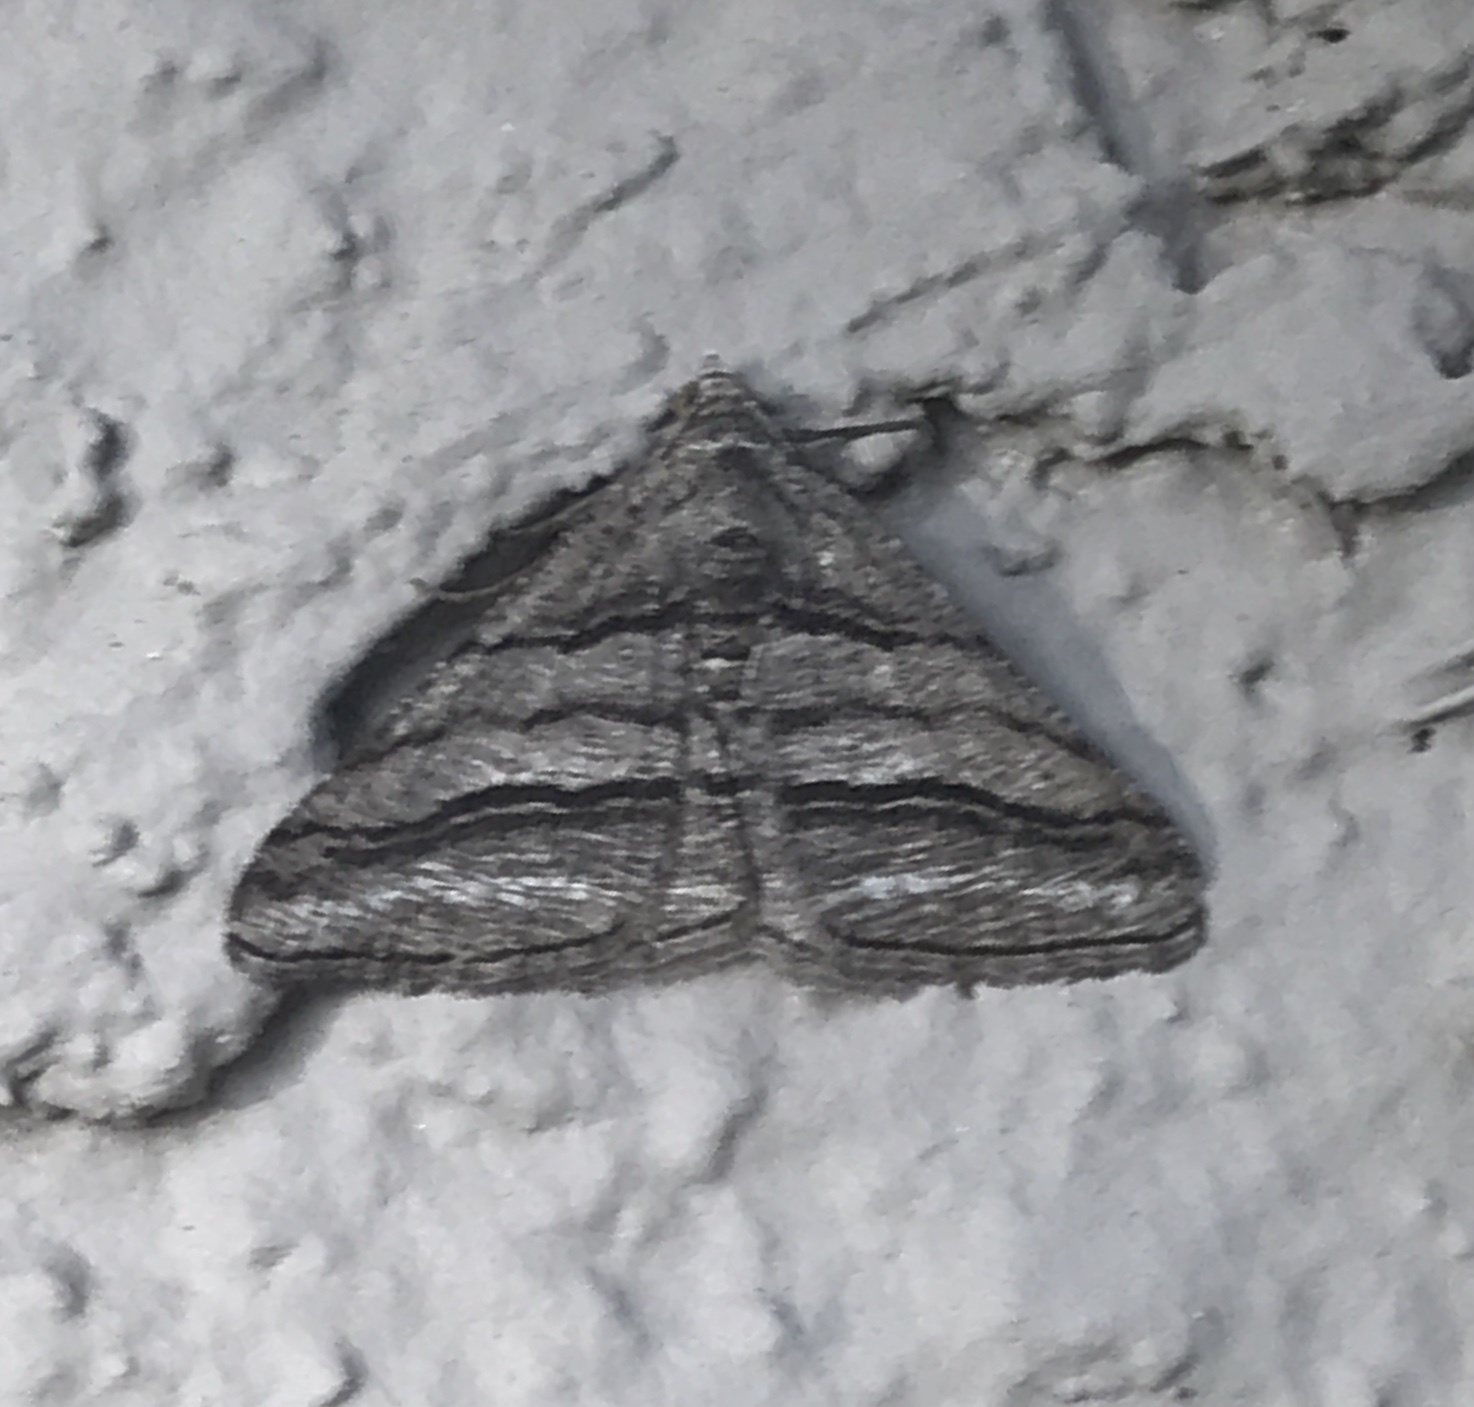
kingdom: Animalia
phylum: Arthropoda
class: Insecta
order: Lepidoptera
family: Geometridae
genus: Digrammia
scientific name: Digrammia atrofasciata
